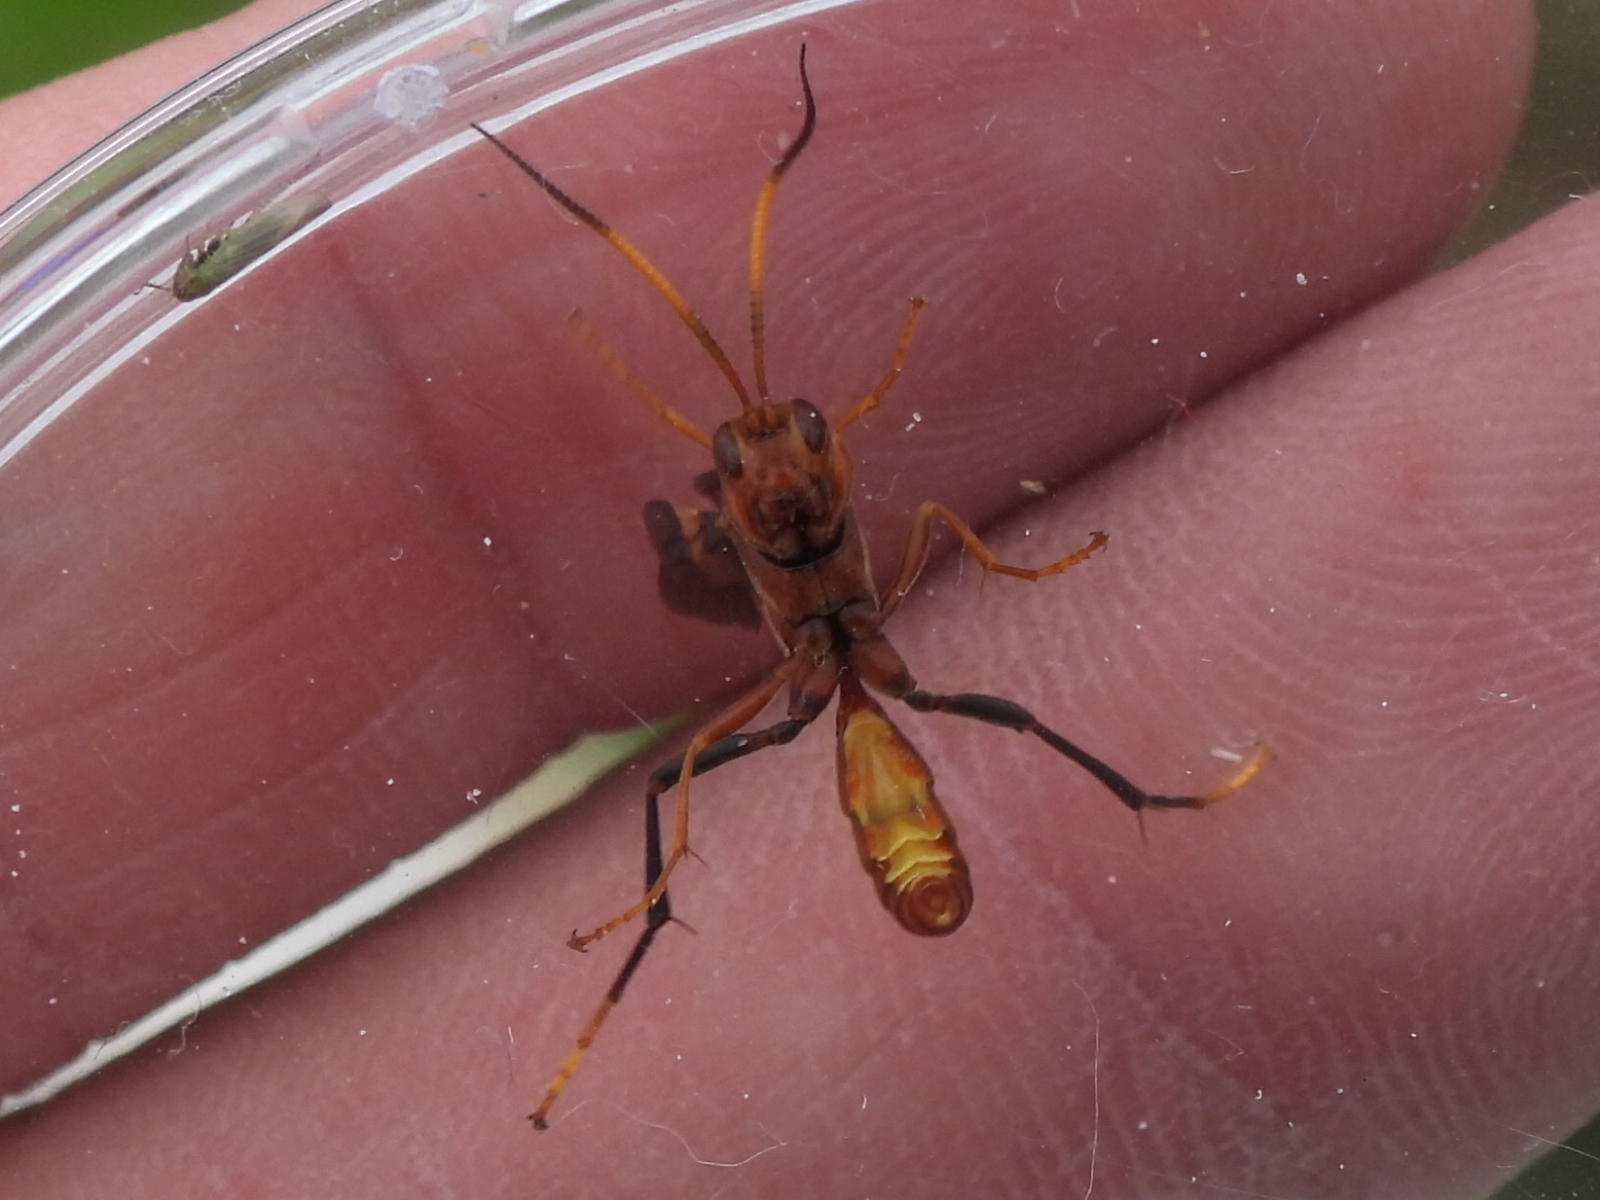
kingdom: Animalia
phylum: Arthropoda
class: Insecta
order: Hymenoptera
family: Ichneumonidae
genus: Trogomorpha
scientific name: Trogomorpha arrogans
